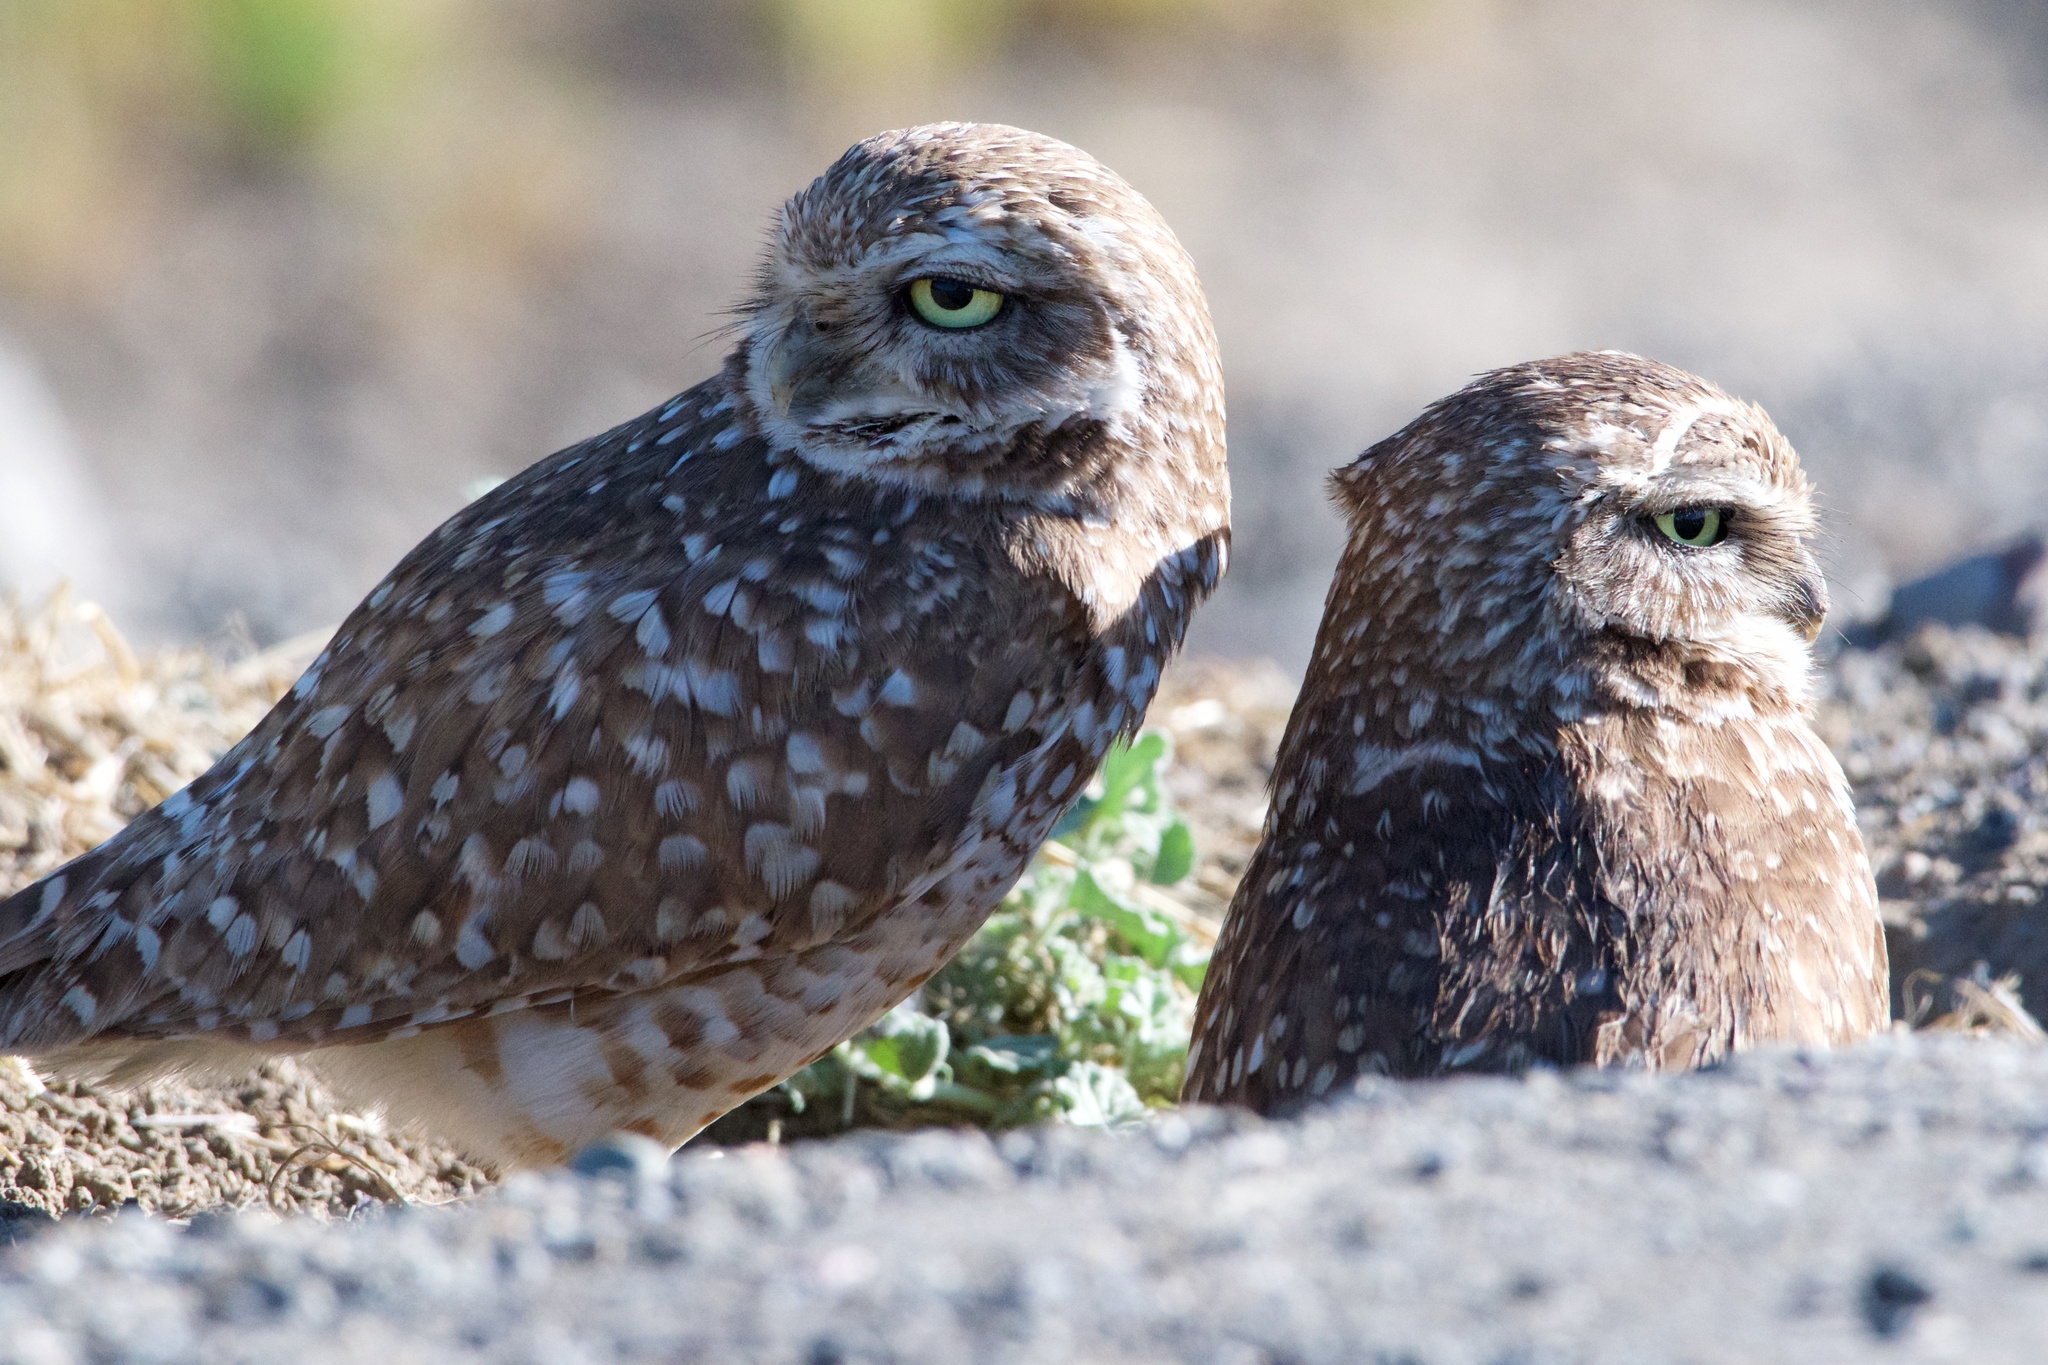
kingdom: Animalia
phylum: Chordata
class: Aves
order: Strigiformes
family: Strigidae
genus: Athene
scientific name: Athene cunicularia
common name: Burrowing owl
